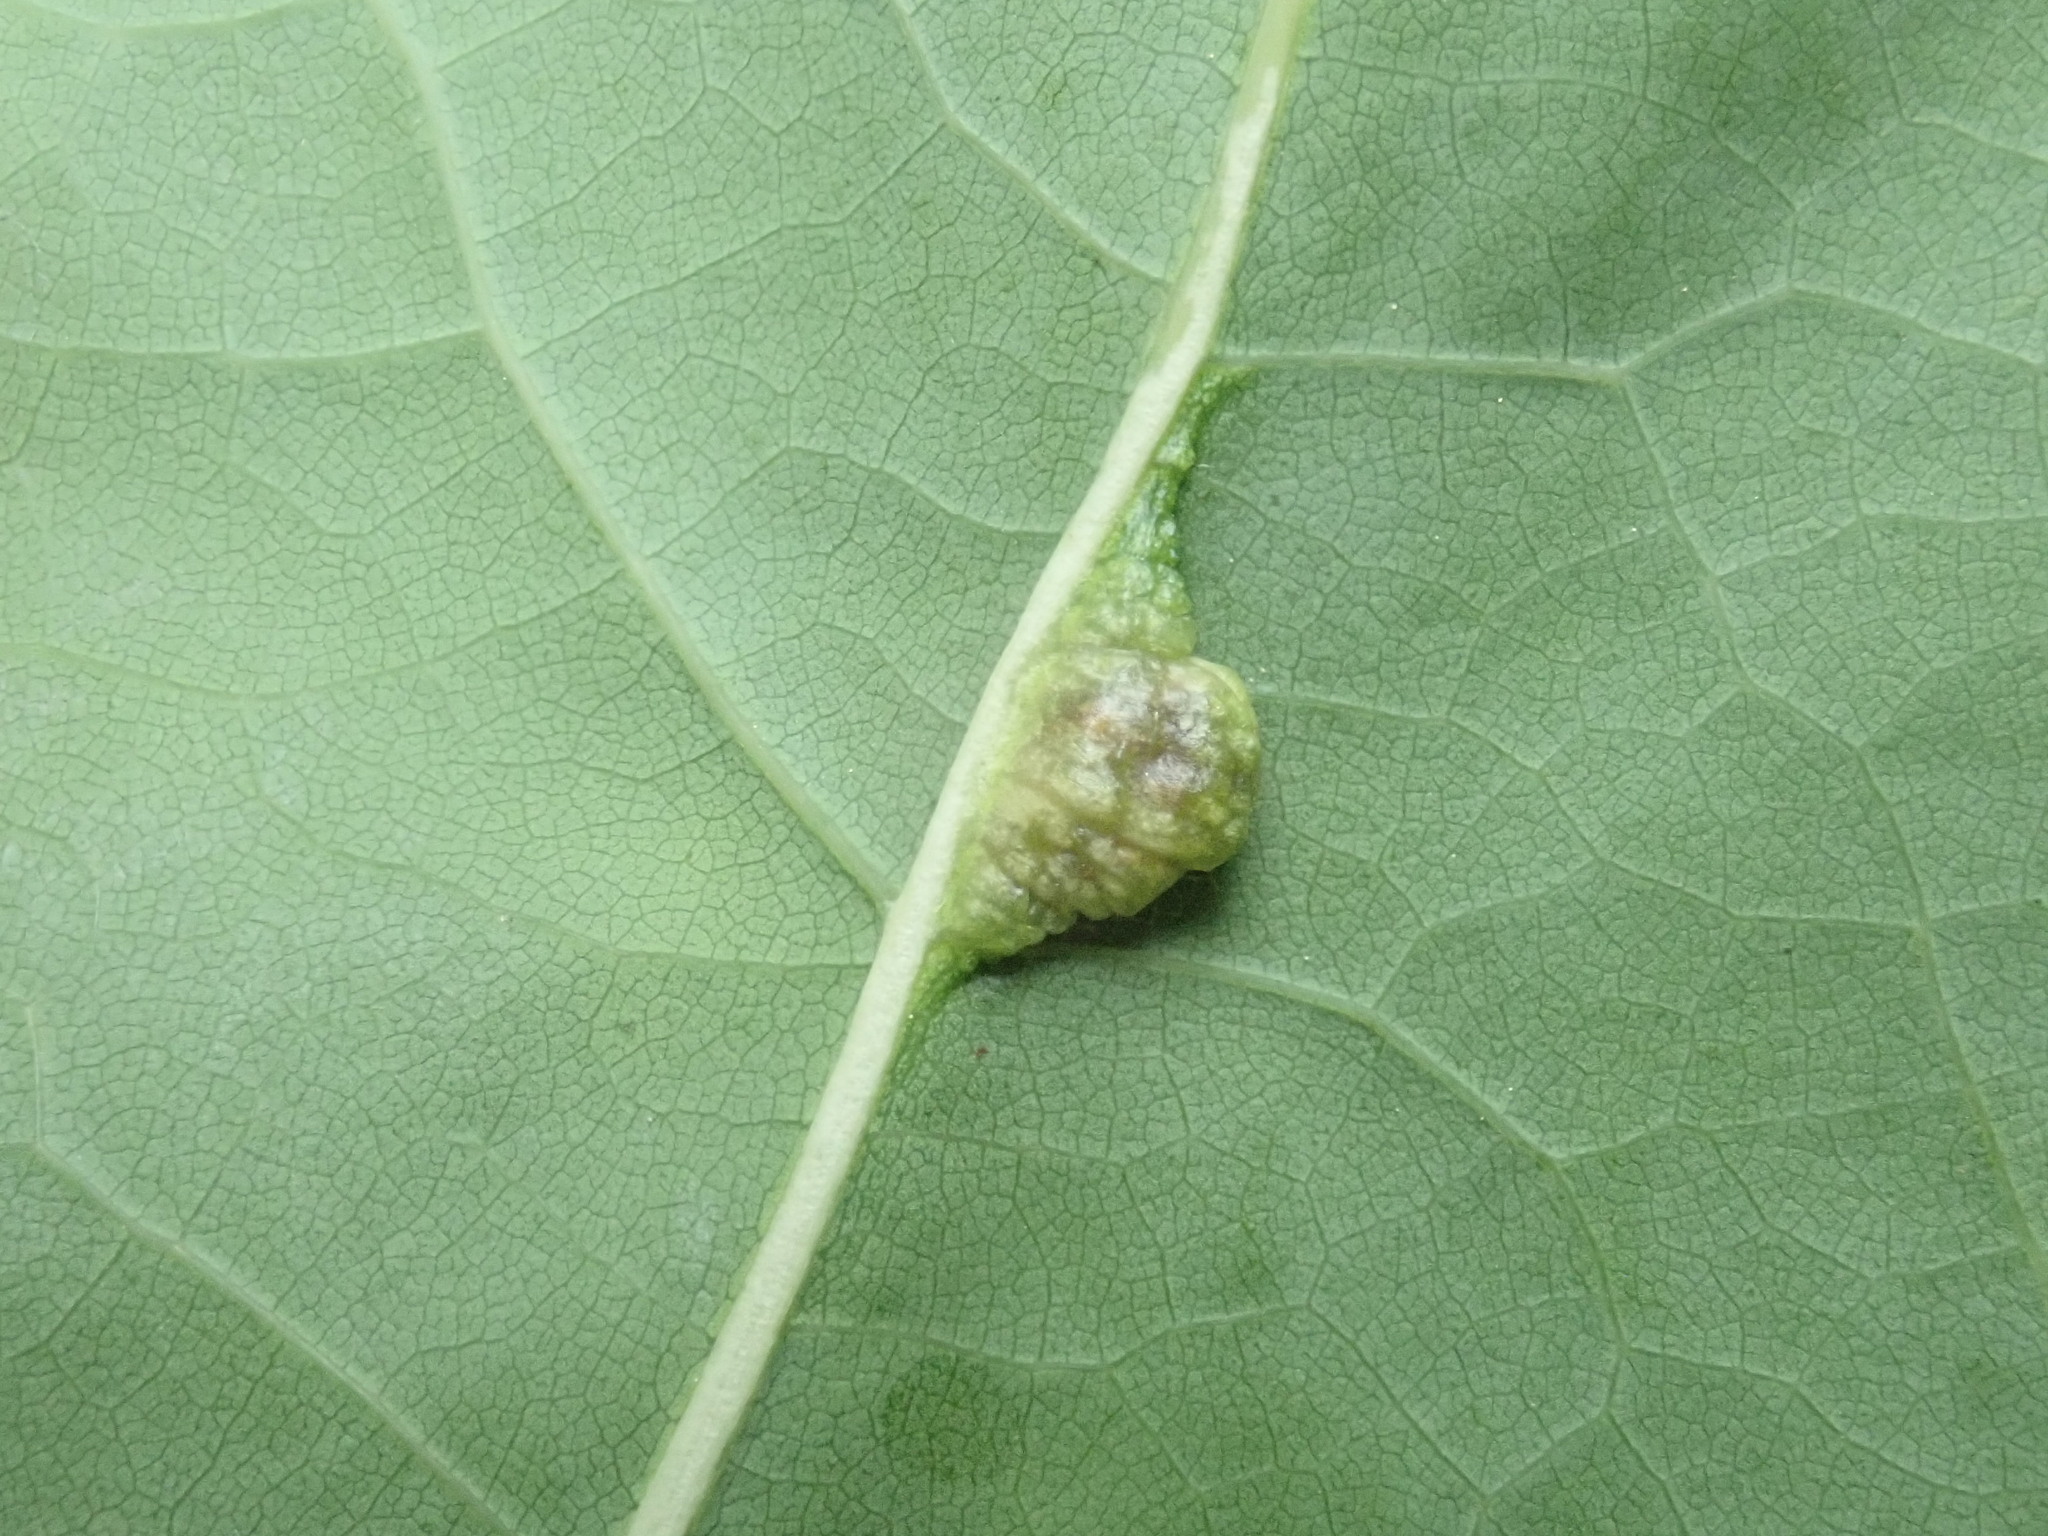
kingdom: Animalia
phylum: Arthropoda
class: Insecta
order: Diptera
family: Cecidomyiidae
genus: Macrodiplosis
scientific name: Macrodiplosis majalis
